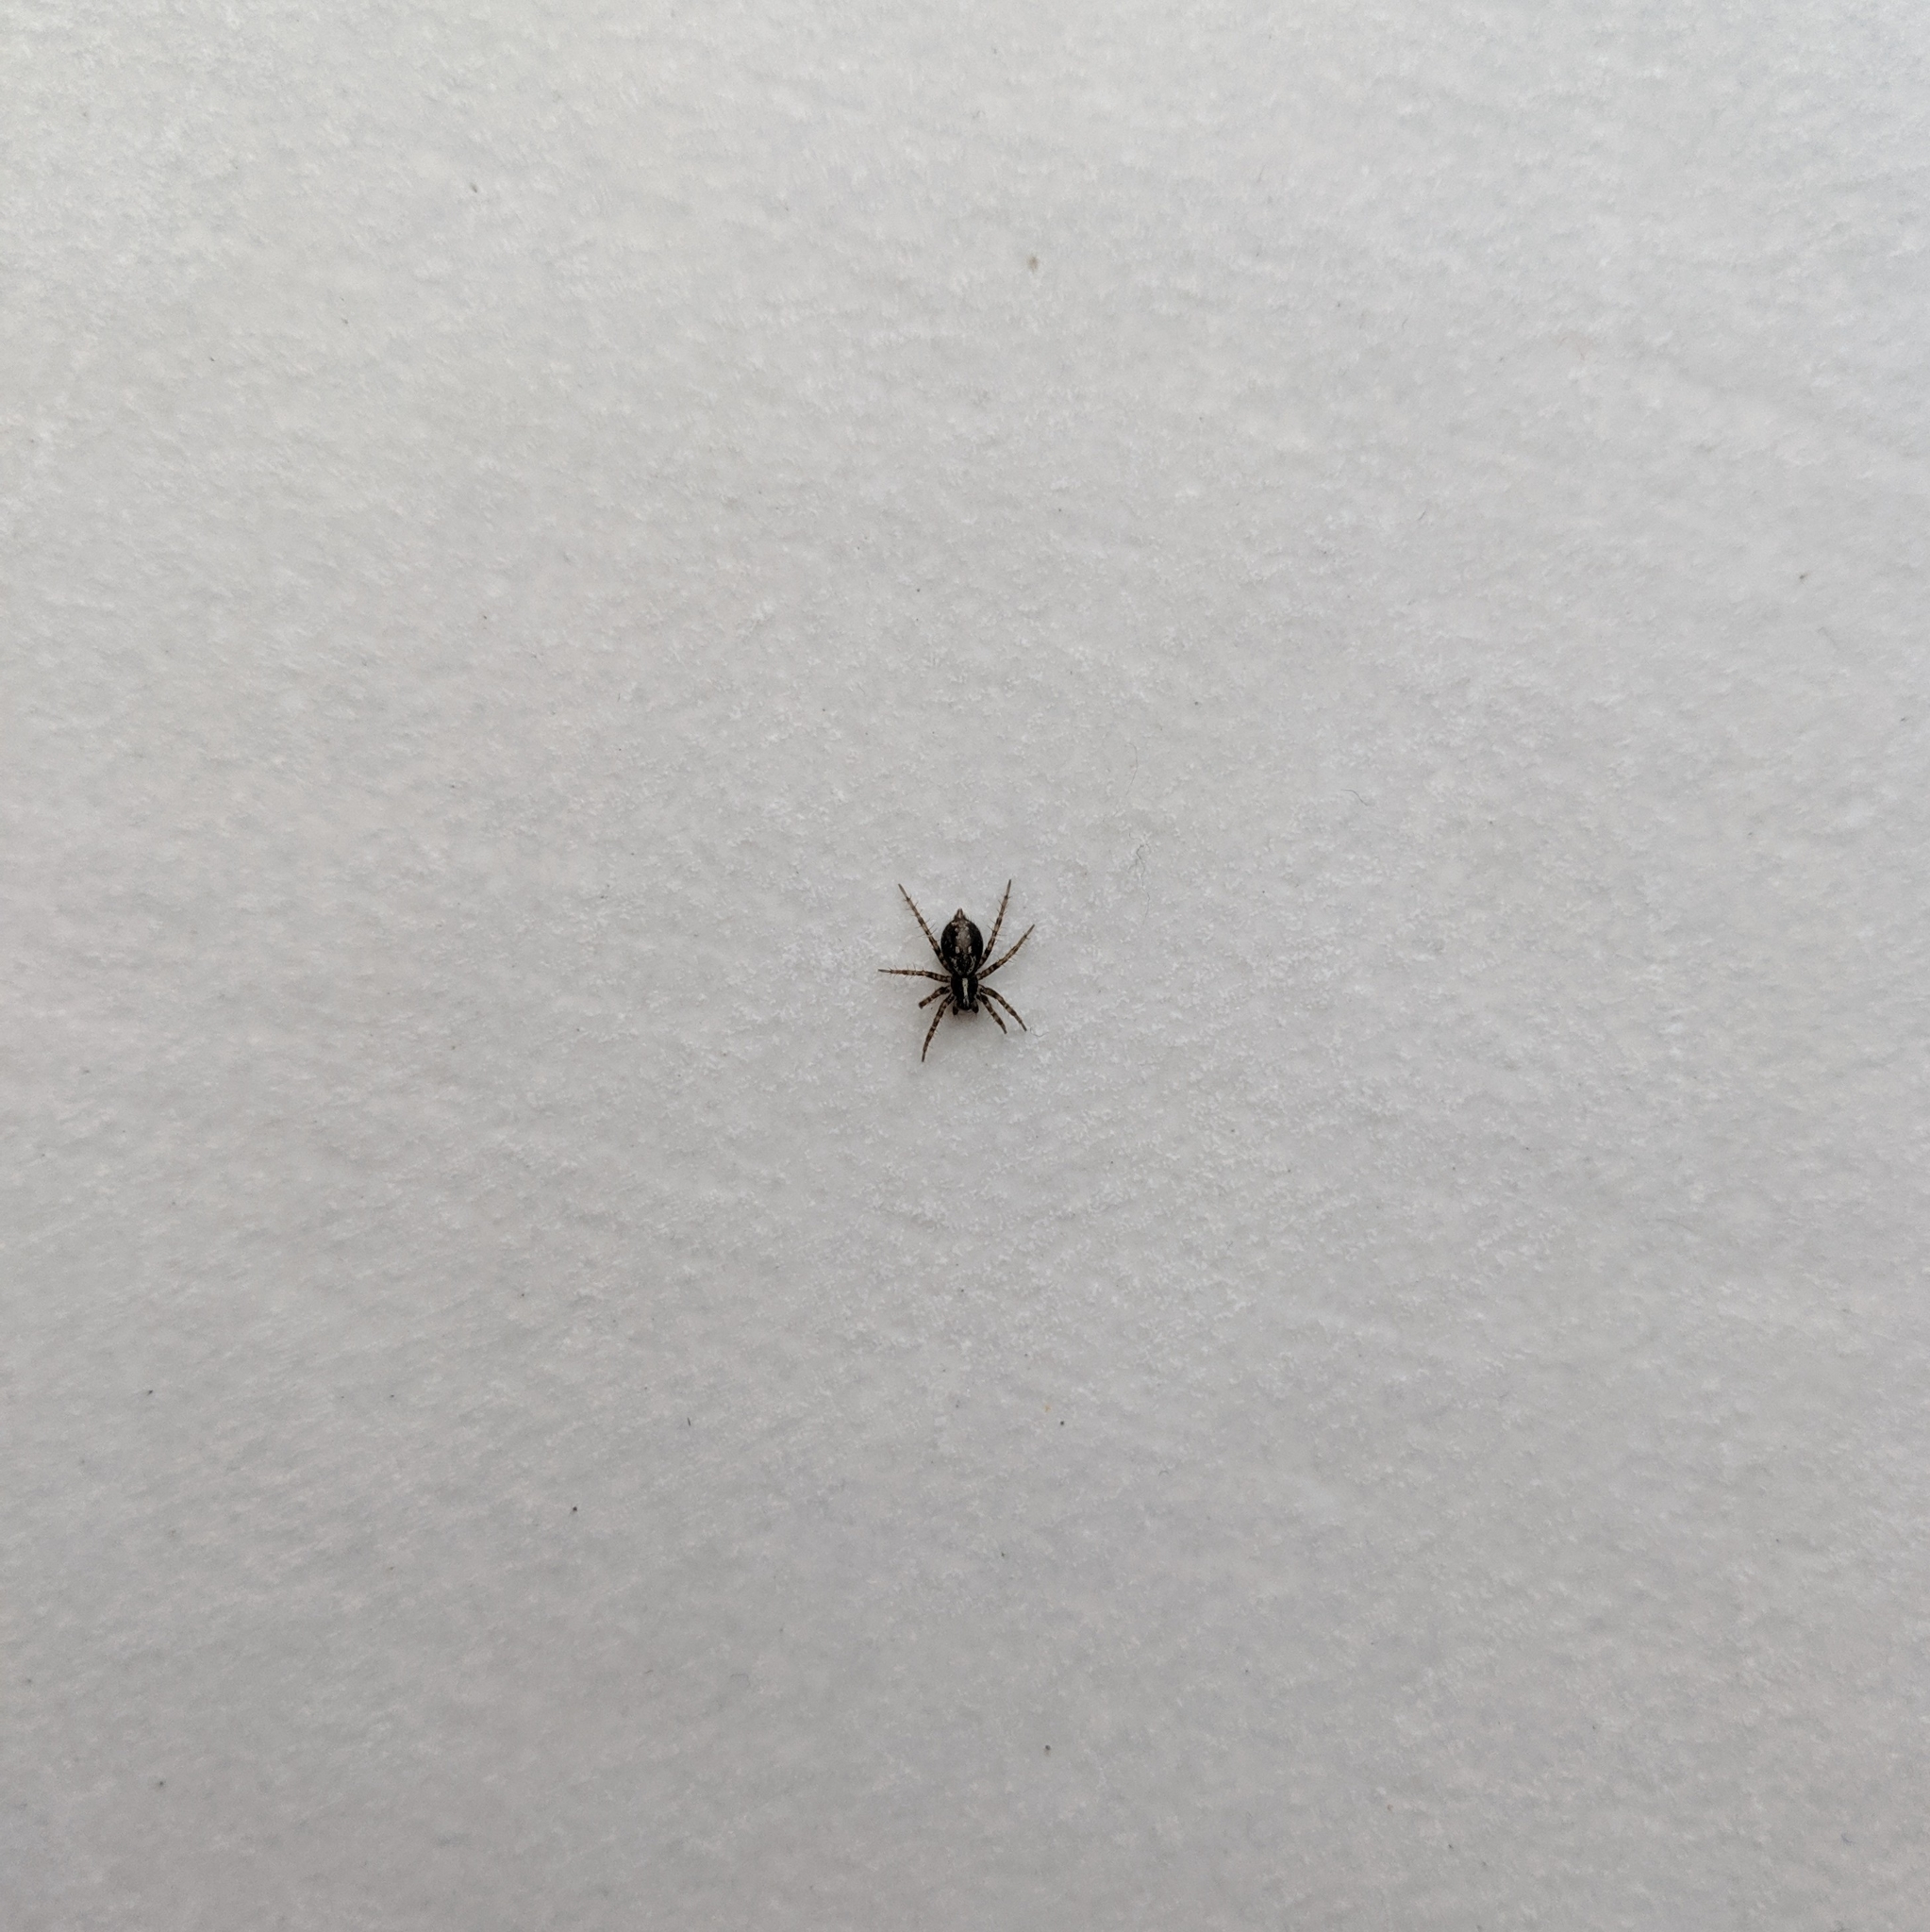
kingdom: Animalia
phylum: Arthropoda
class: Arachnida
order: Araneae
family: Agelenidae
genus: Textrix
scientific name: Textrix denticulata
